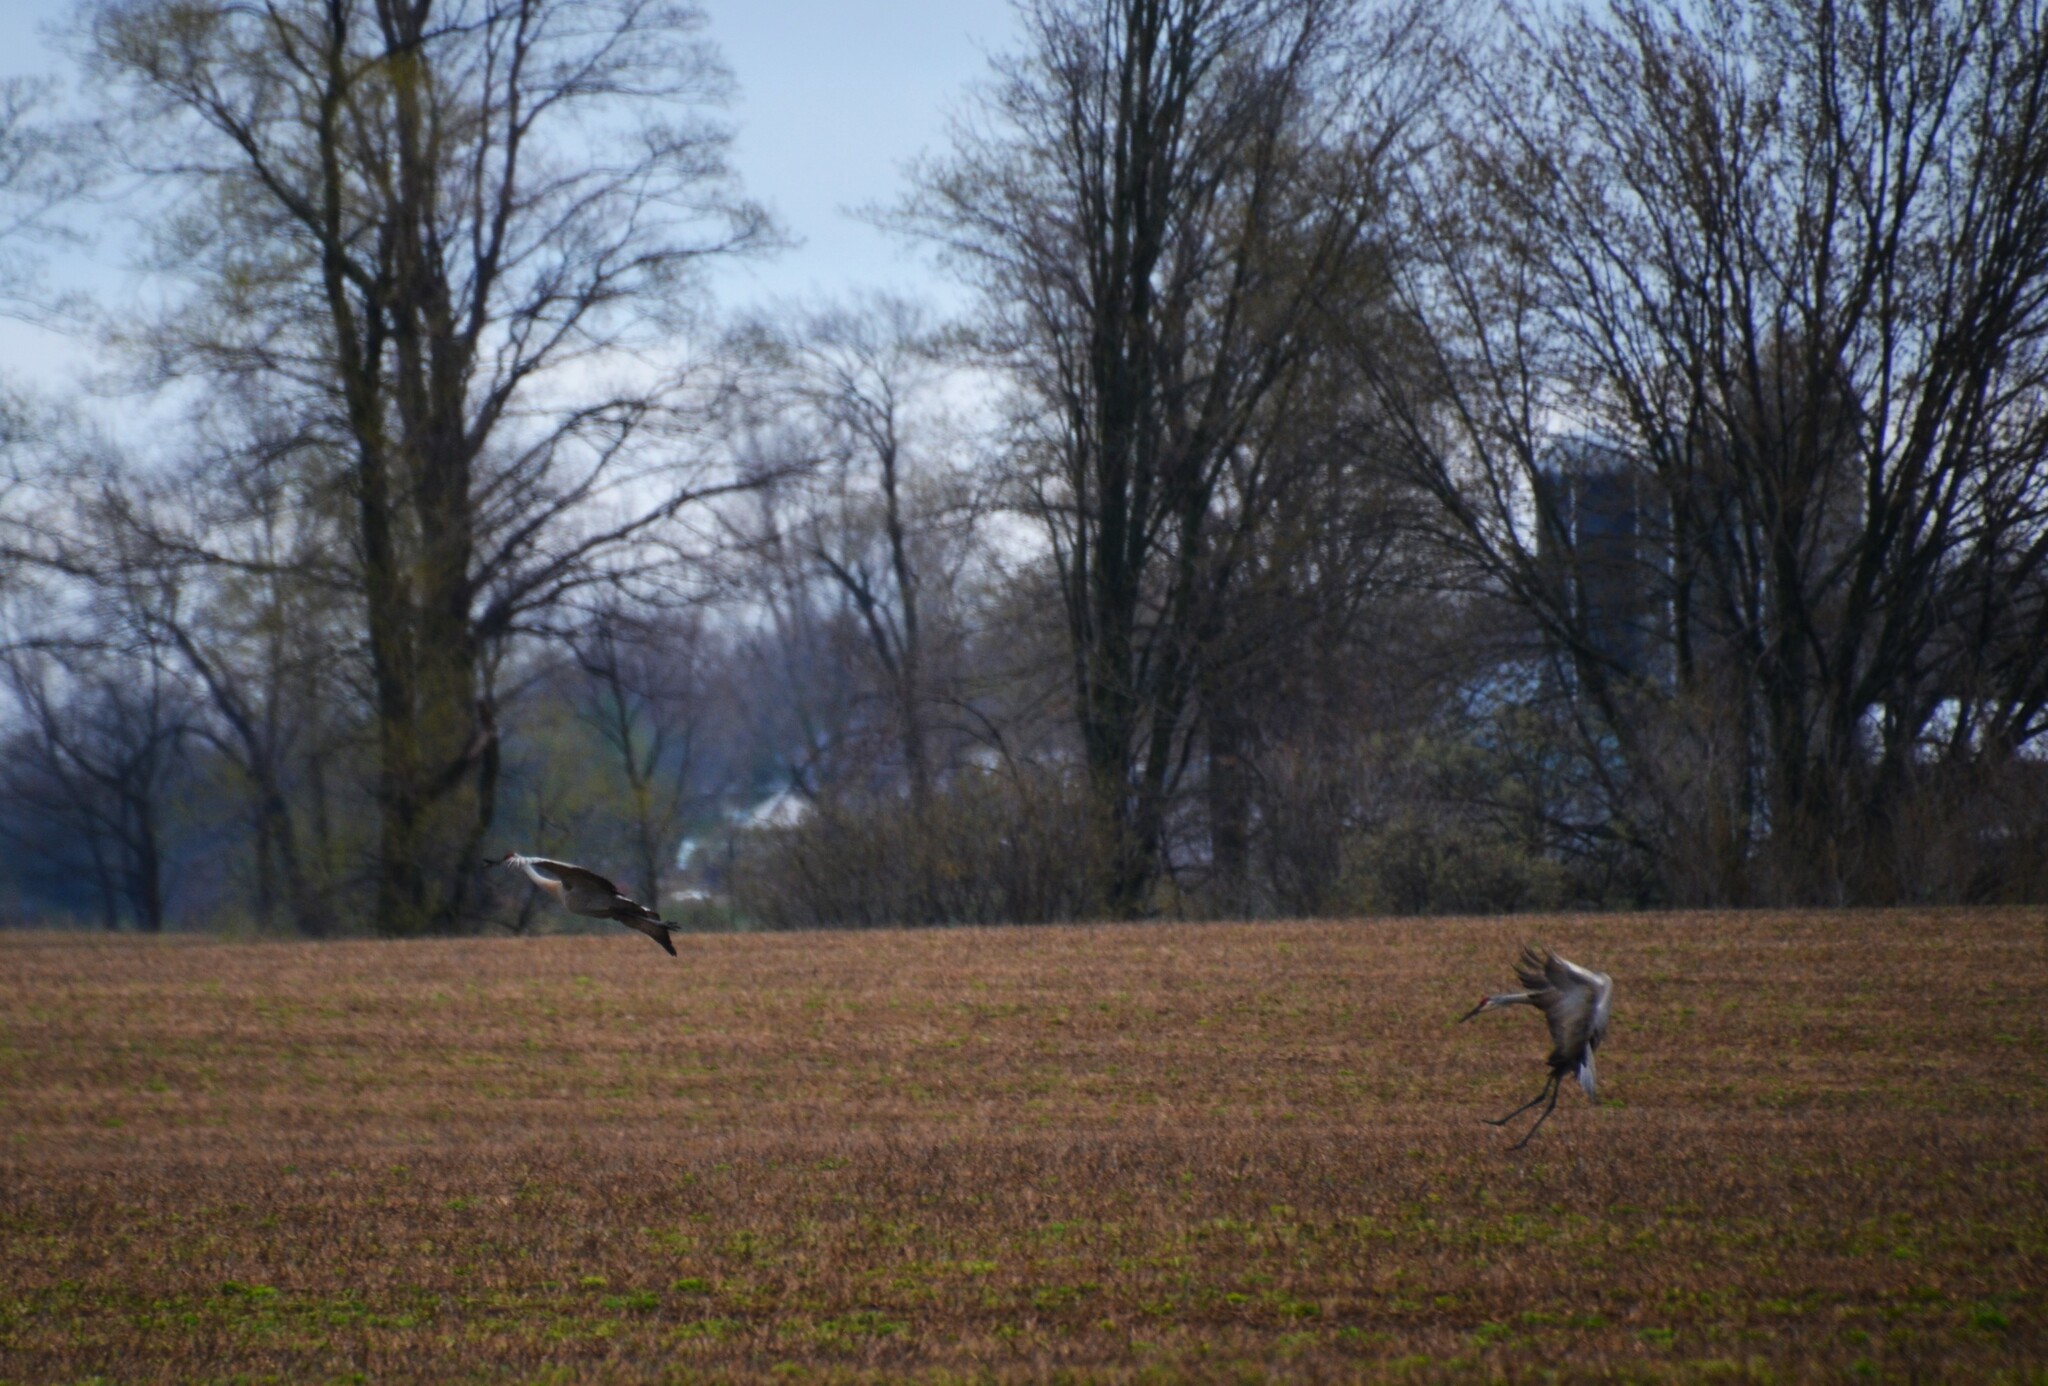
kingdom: Animalia
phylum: Chordata
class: Aves
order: Gruiformes
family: Gruidae
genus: Grus
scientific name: Grus canadensis
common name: Sandhill crane
